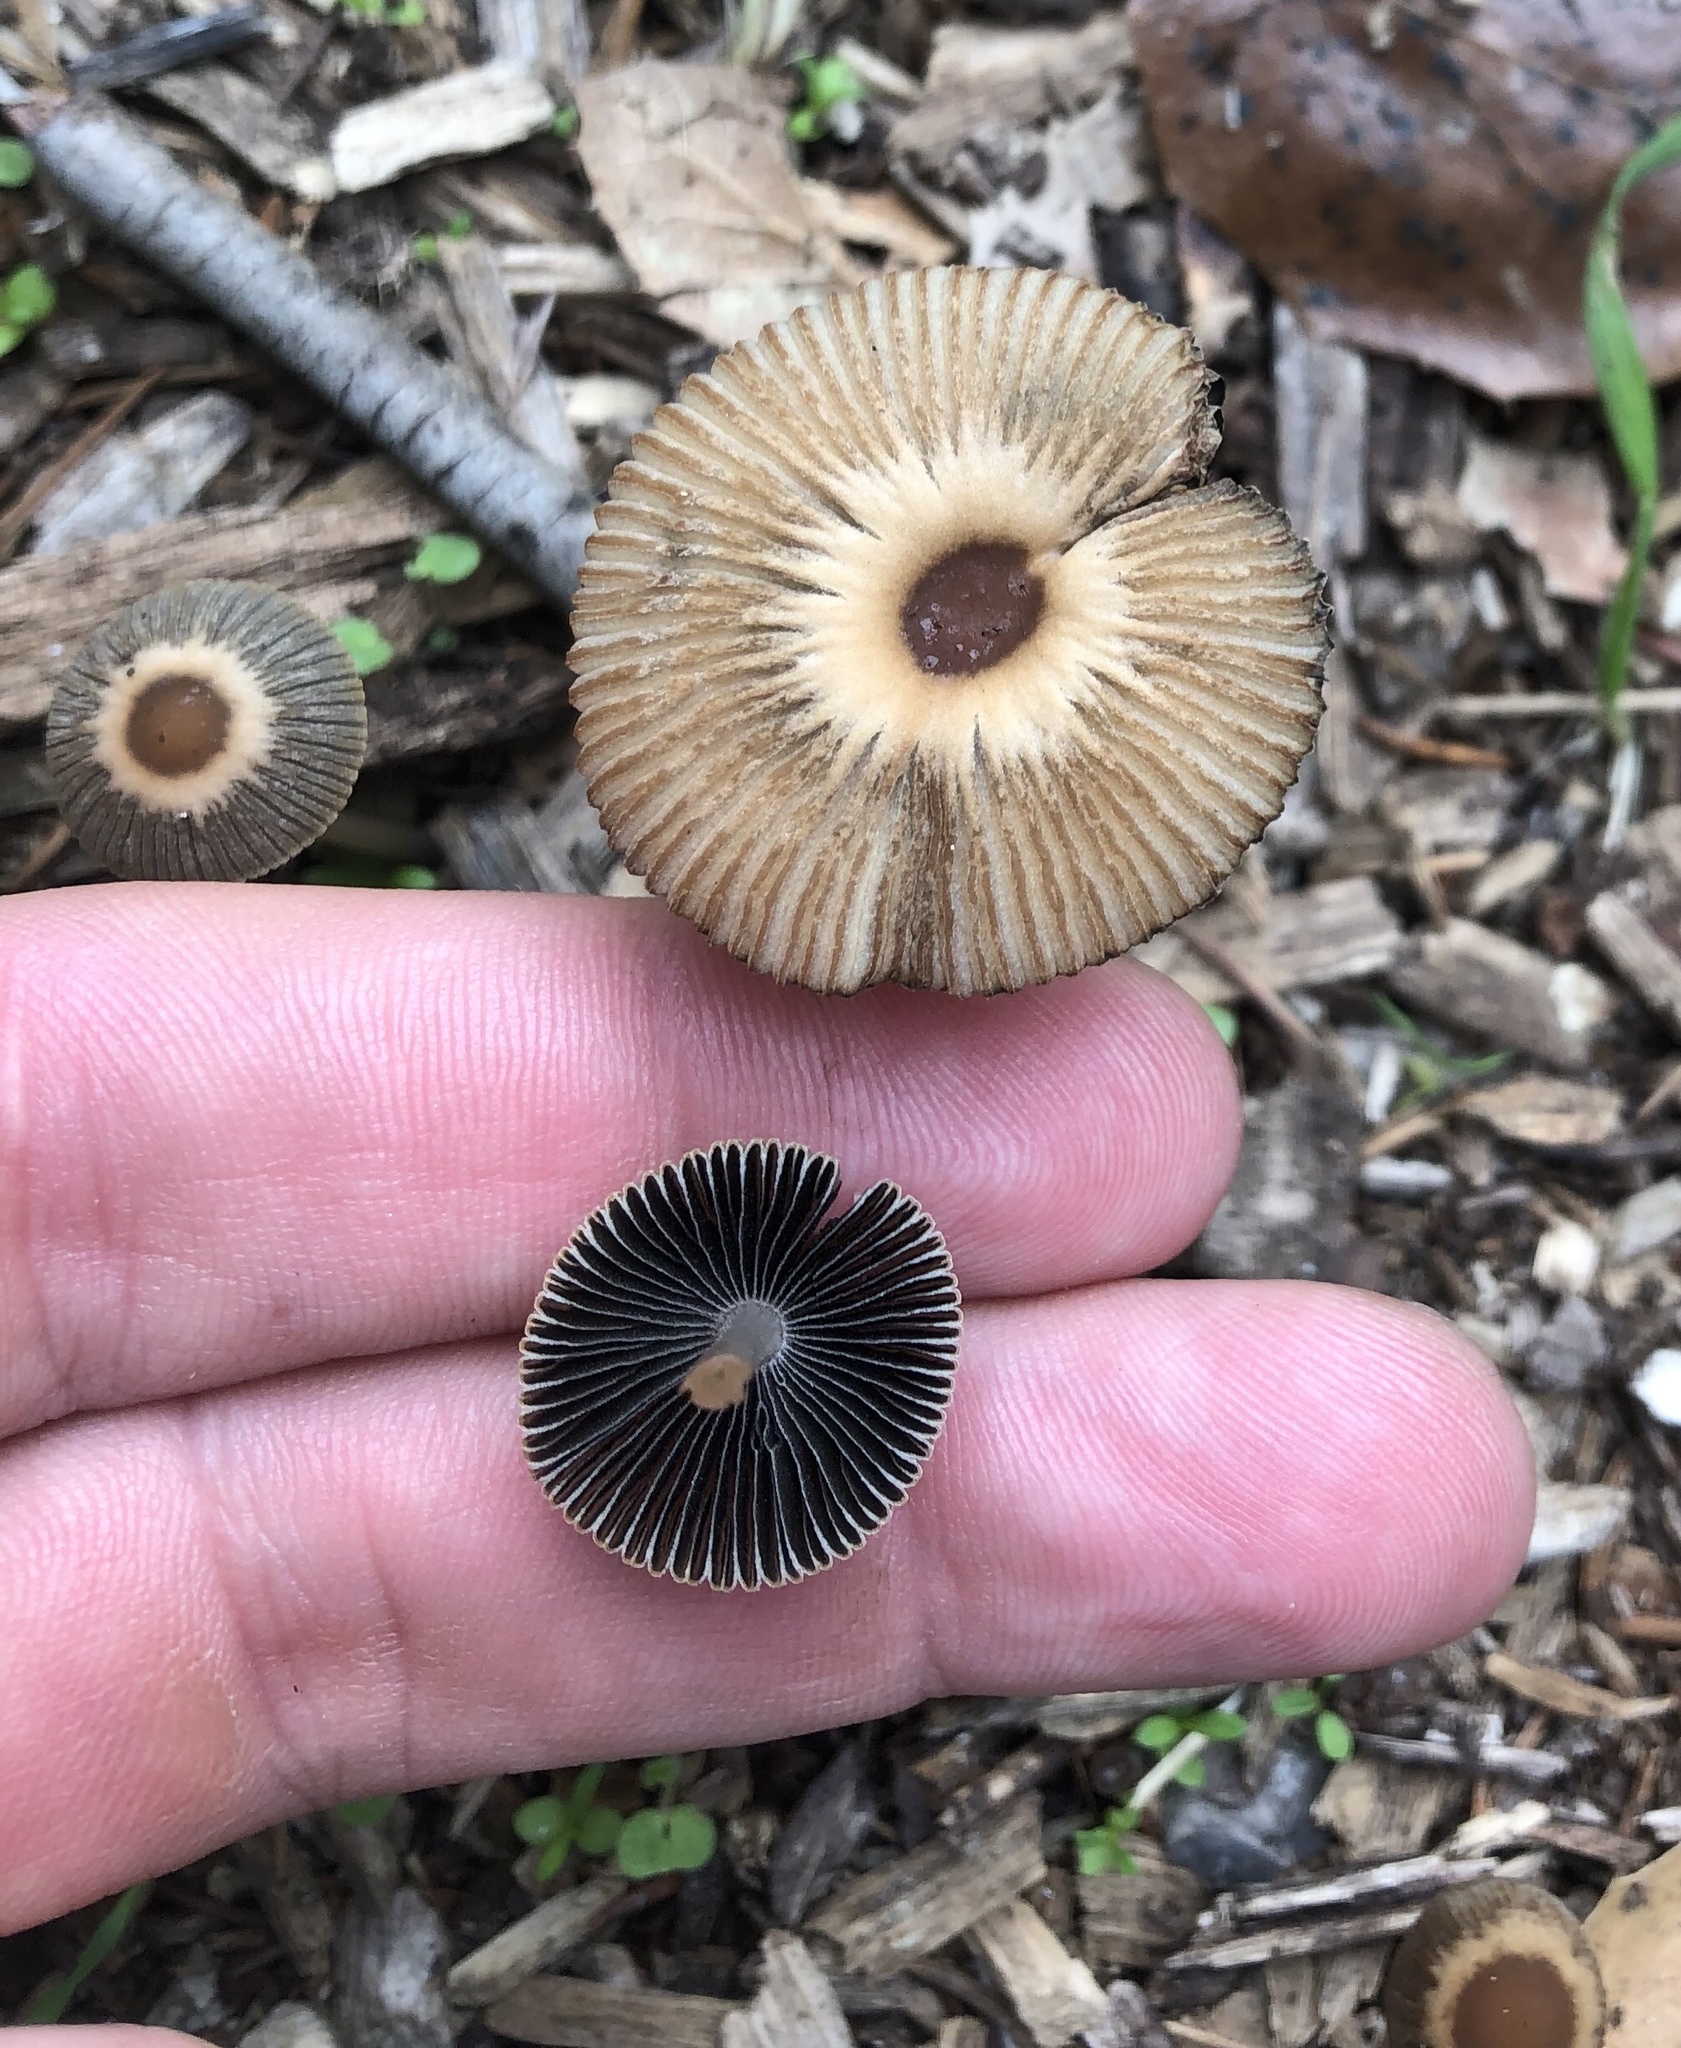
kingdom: Fungi
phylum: Basidiomycota
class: Agaricomycetes
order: Agaricales
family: Psathyrellaceae
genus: Parasola
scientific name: Parasola plicatilis
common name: Pleated inkcap
